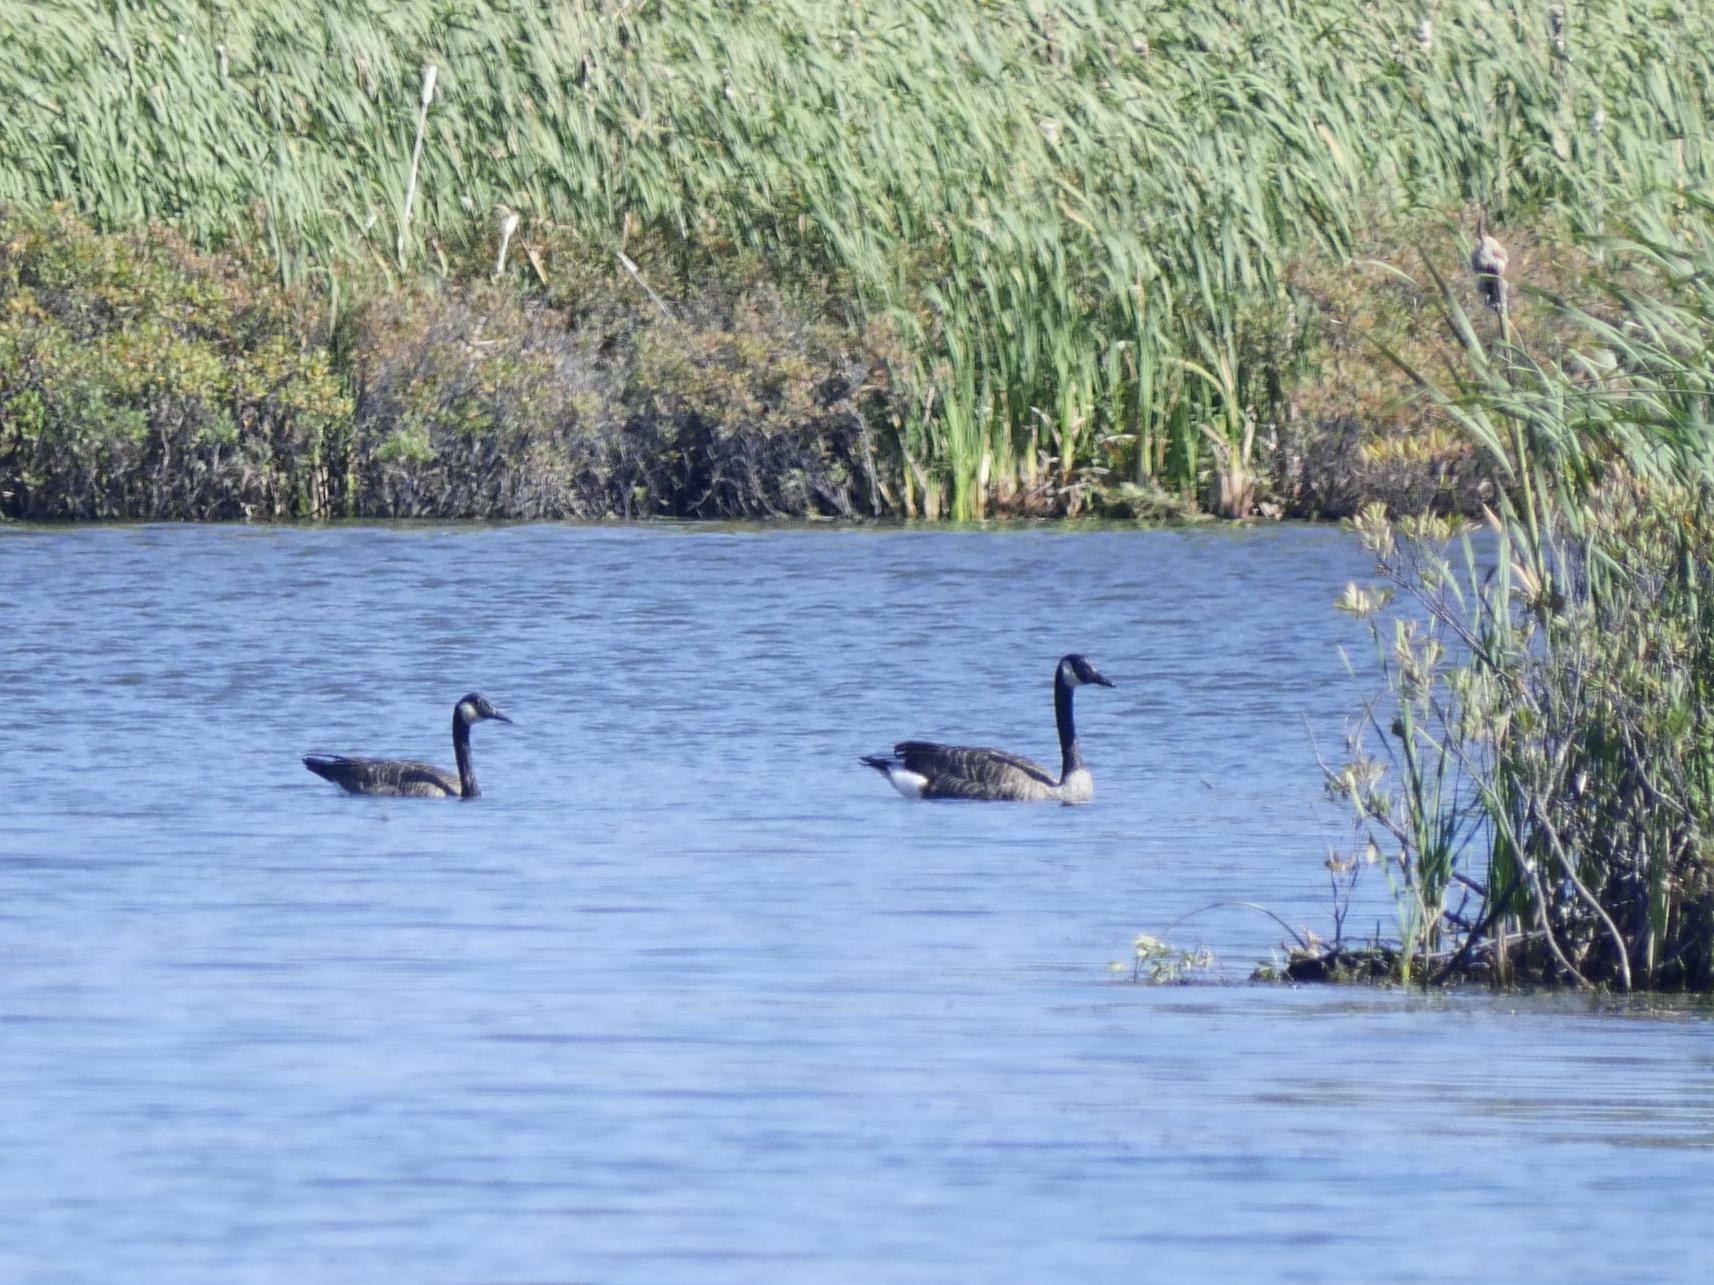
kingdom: Animalia
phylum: Chordata
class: Aves
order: Anseriformes
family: Anatidae
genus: Branta
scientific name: Branta canadensis
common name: Canada goose
